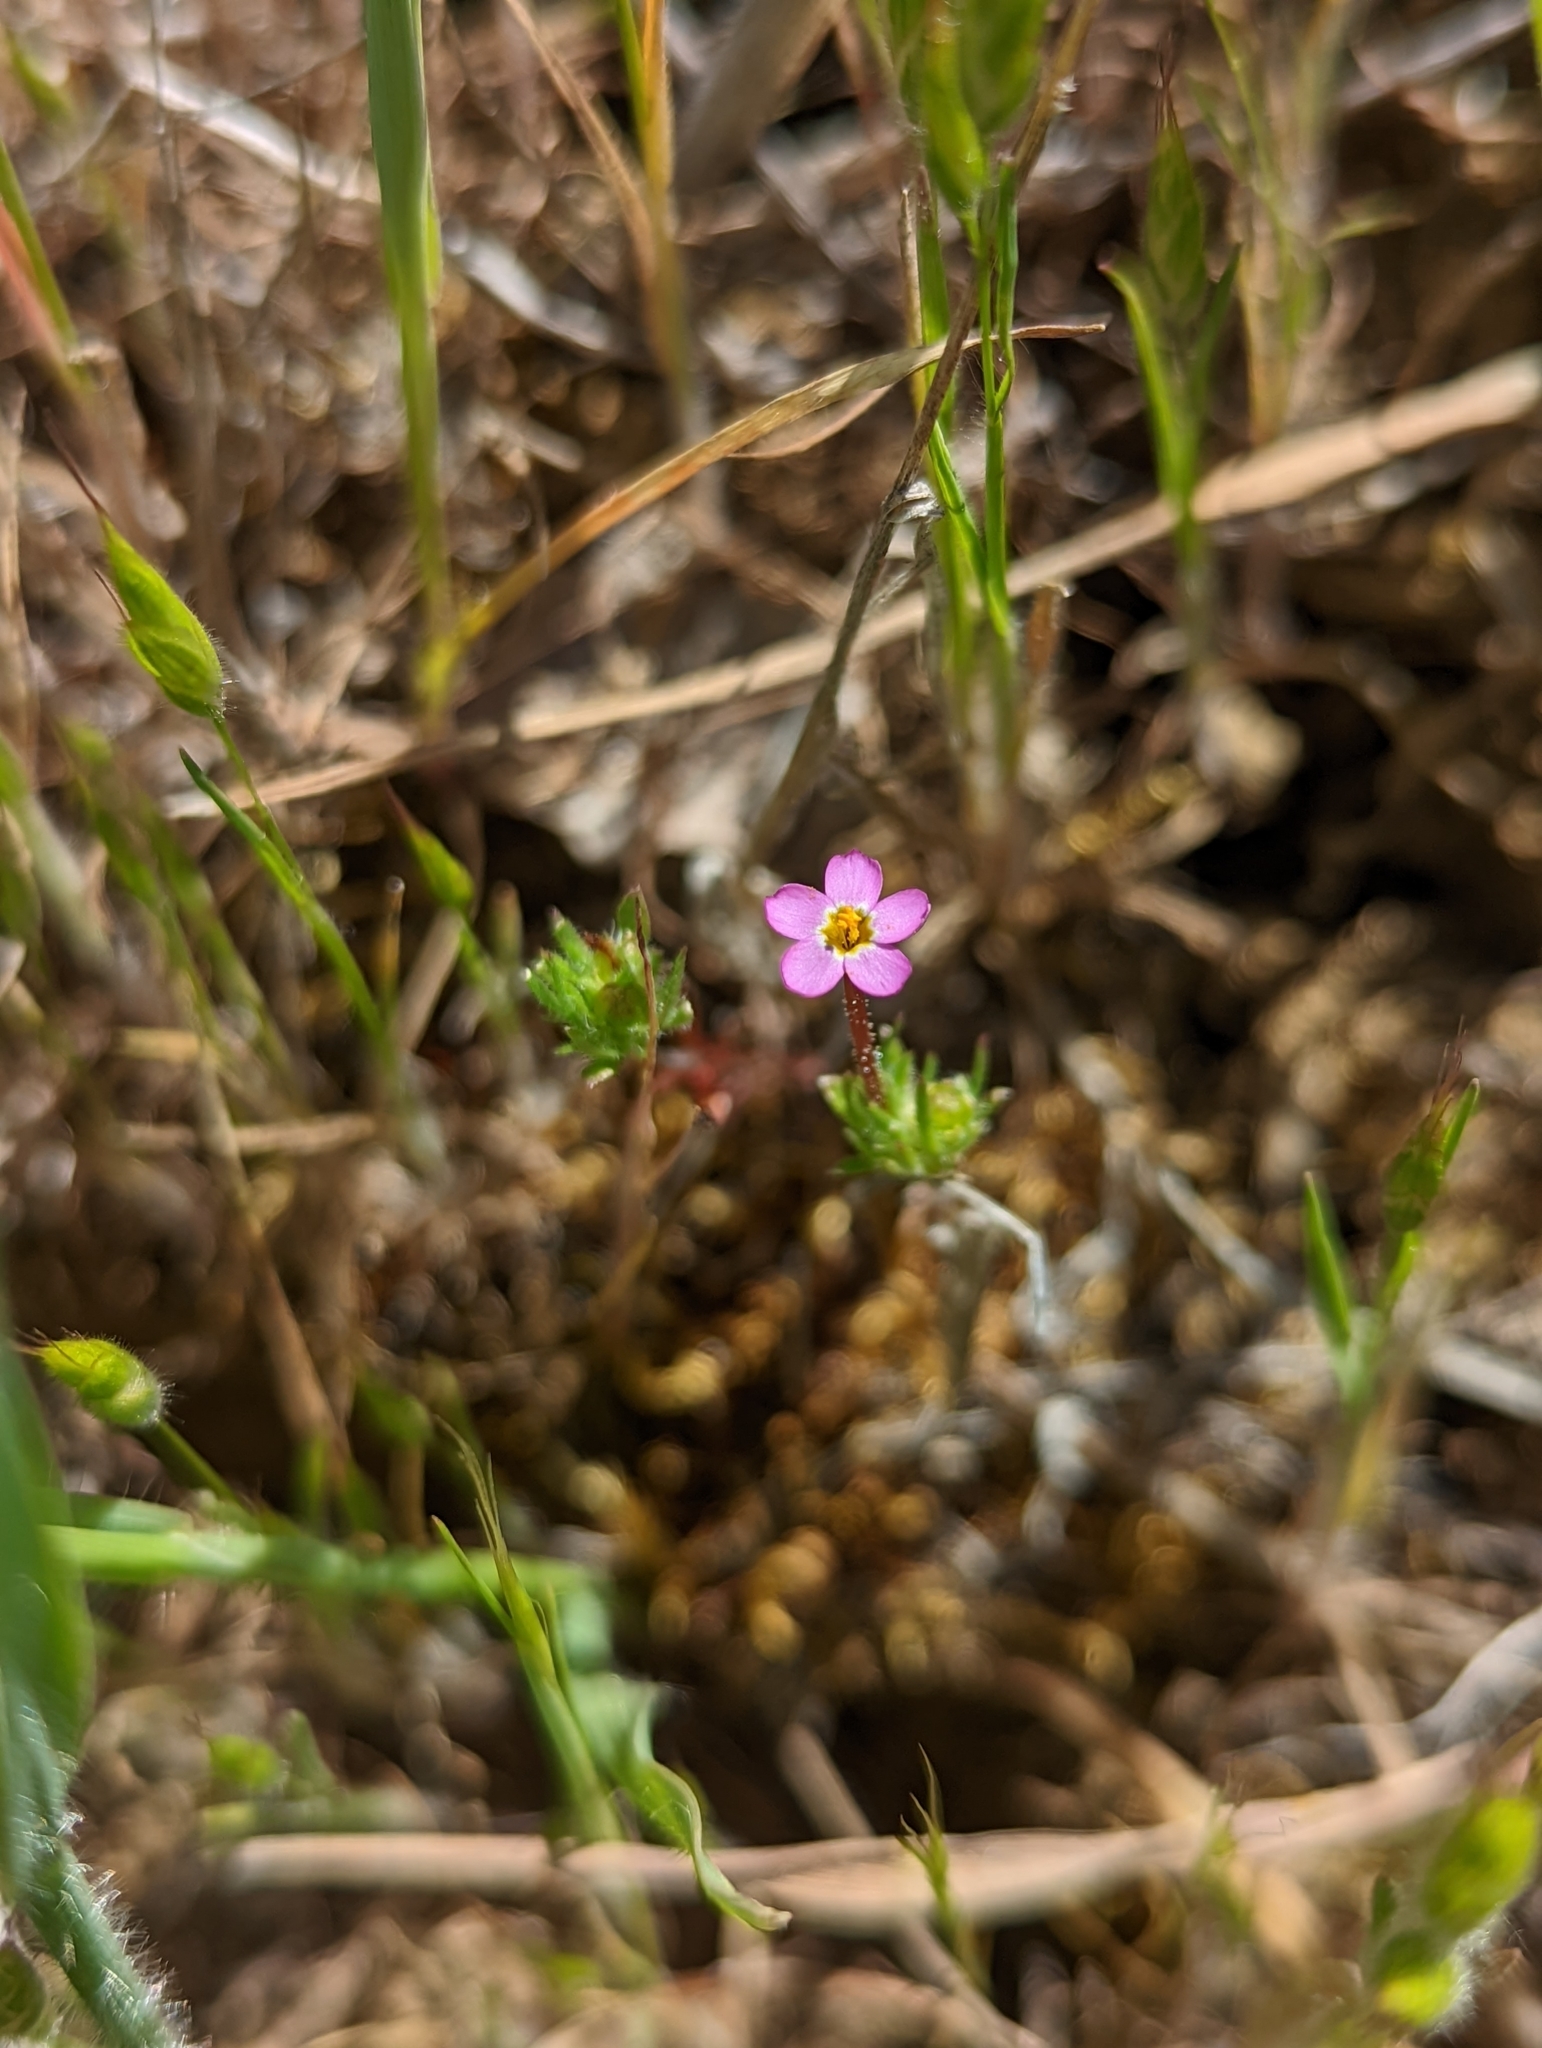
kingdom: Plantae
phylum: Tracheophyta
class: Magnoliopsida
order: Ericales
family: Polemoniaceae
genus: Leptosiphon
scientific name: Leptosiphon bicolor
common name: True babystars
